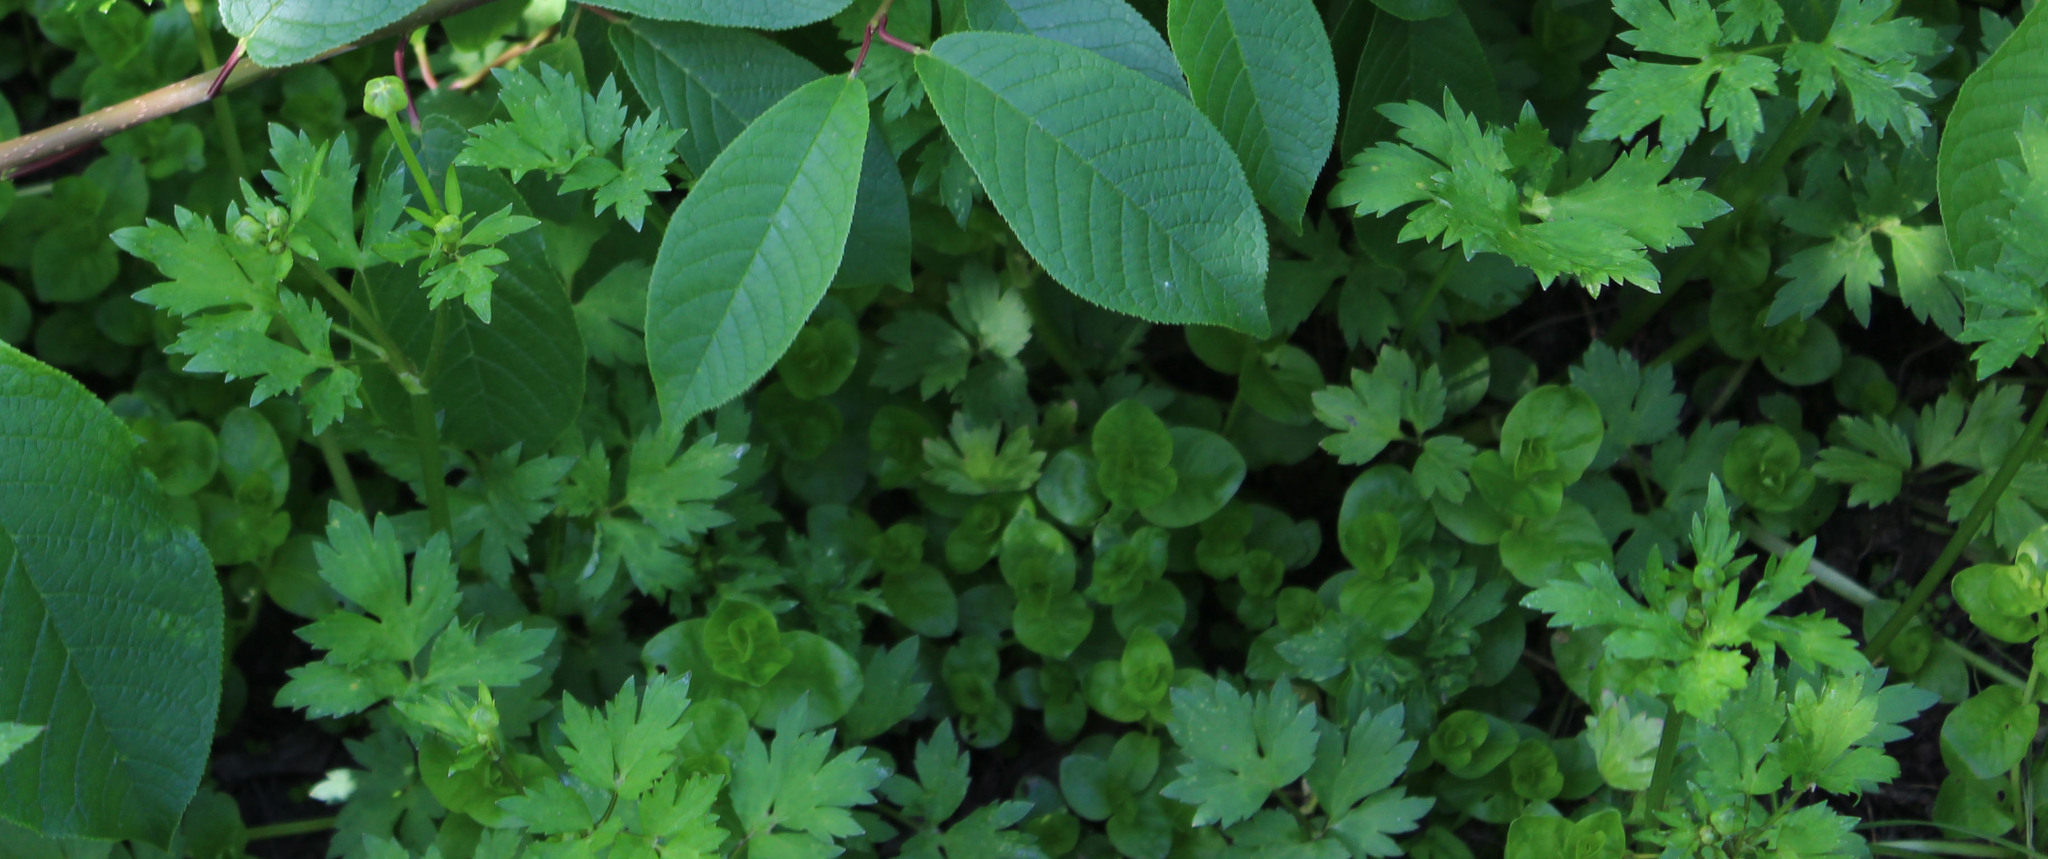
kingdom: Plantae
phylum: Tracheophyta
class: Magnoliopsida
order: Ericales
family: Primulaceae
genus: Lysimachia
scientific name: Lysimachia nummularia
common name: Moneywort
